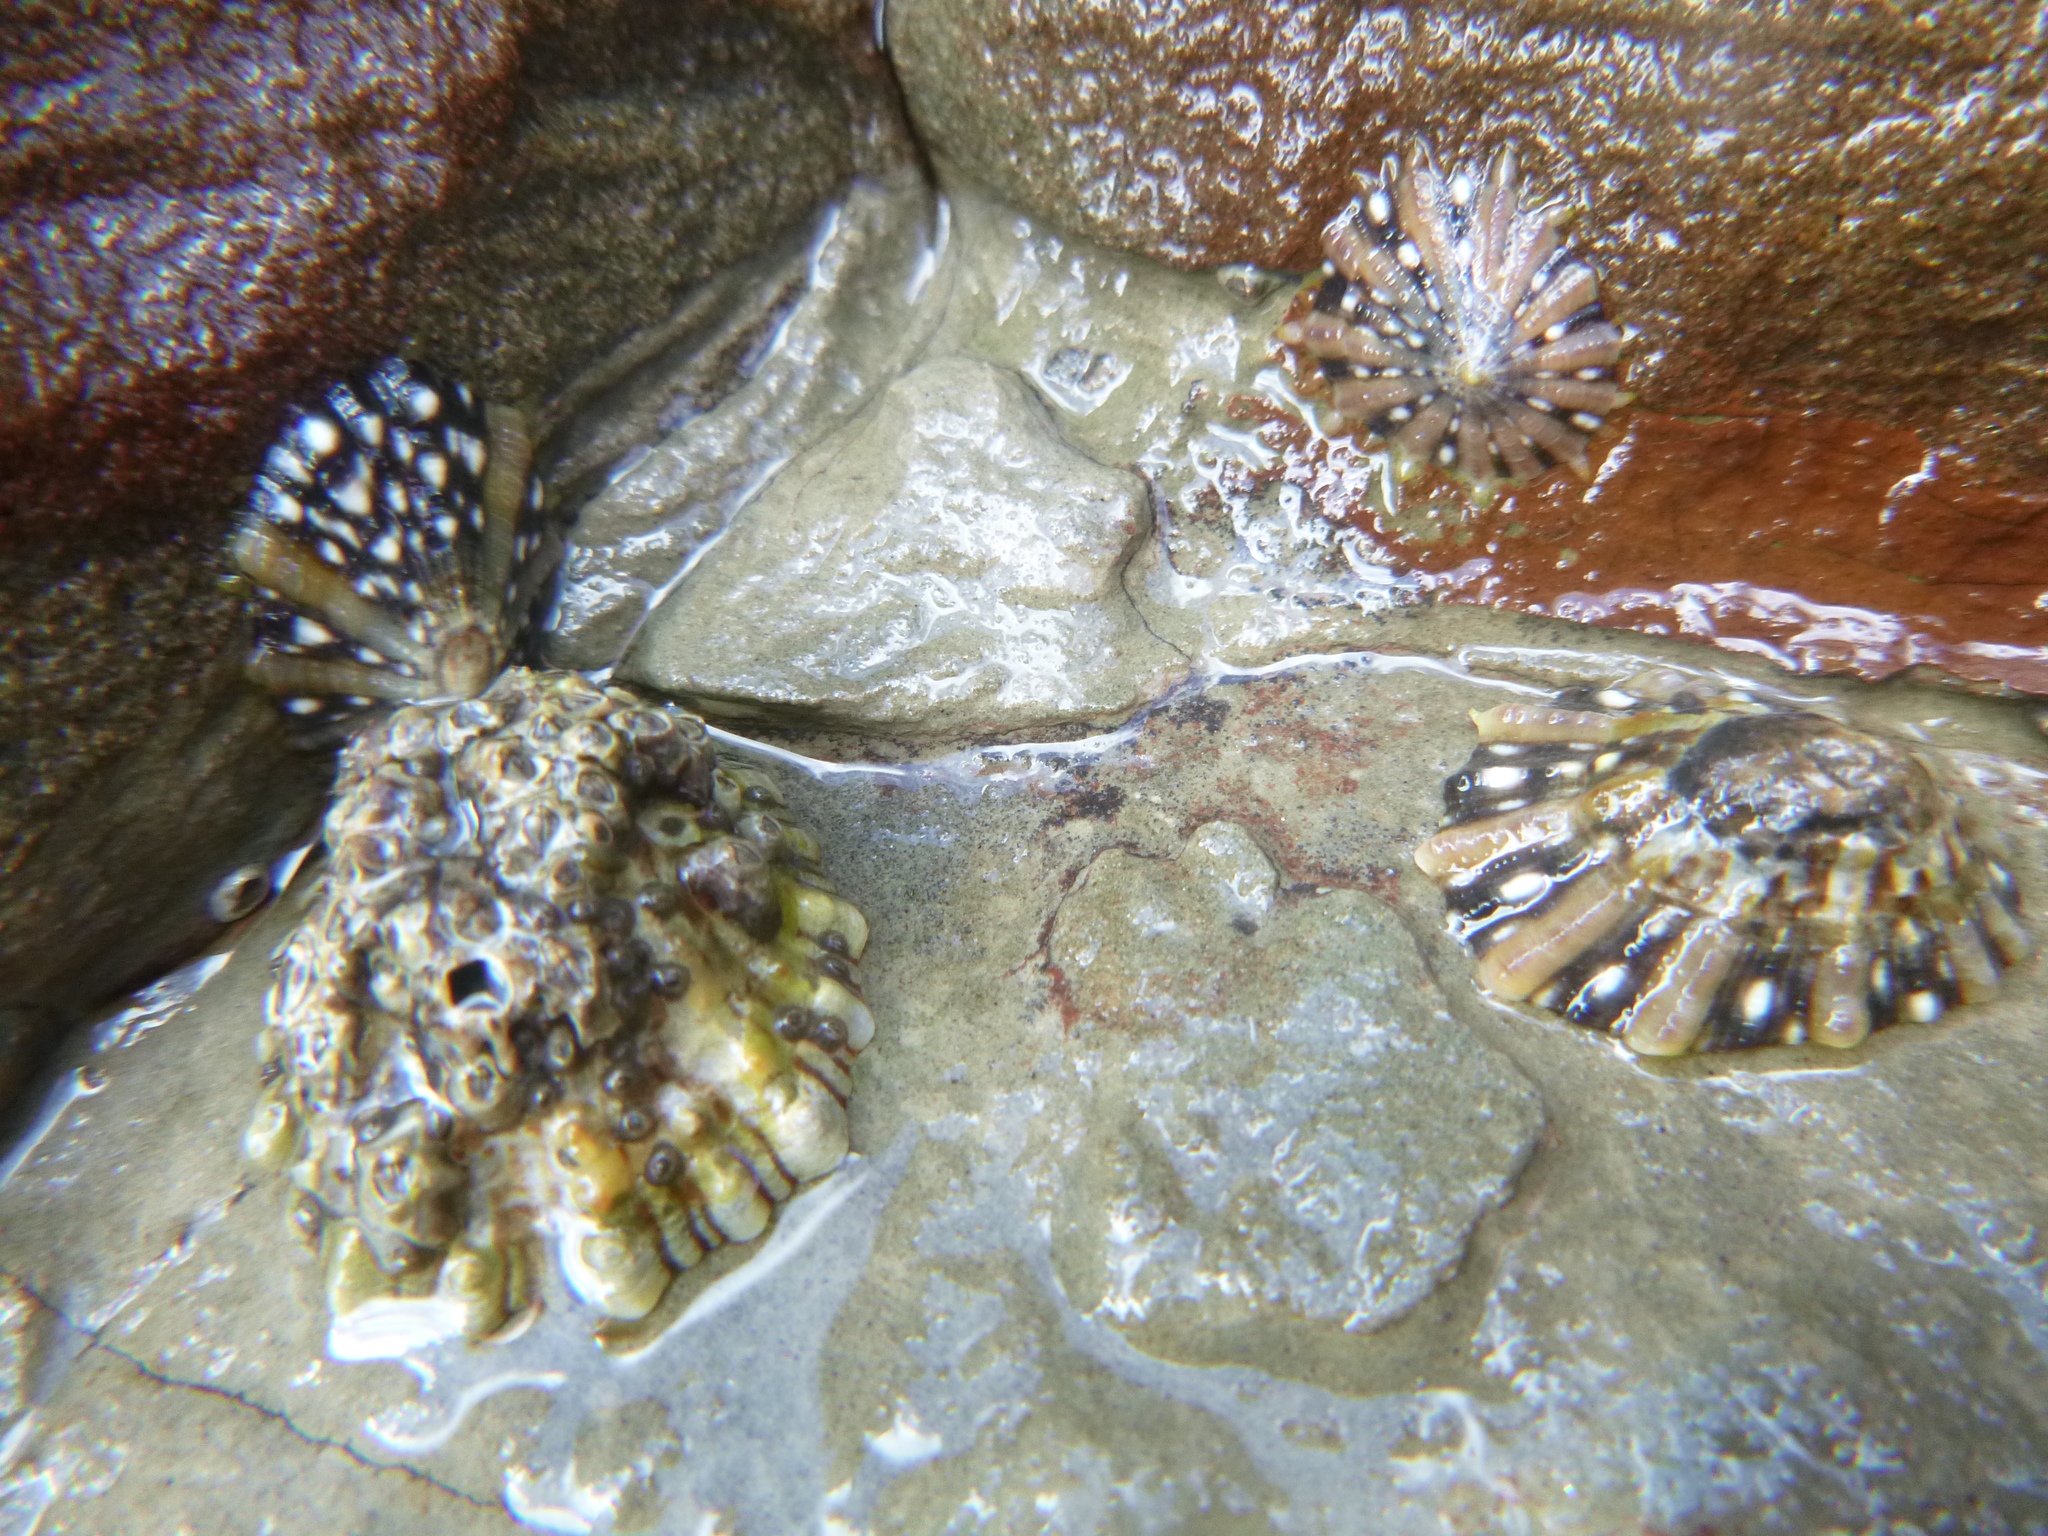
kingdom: Animalia
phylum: Mollusca
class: Gastropoda
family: Nacellidae
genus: Cellana
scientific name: Cellana ornata
